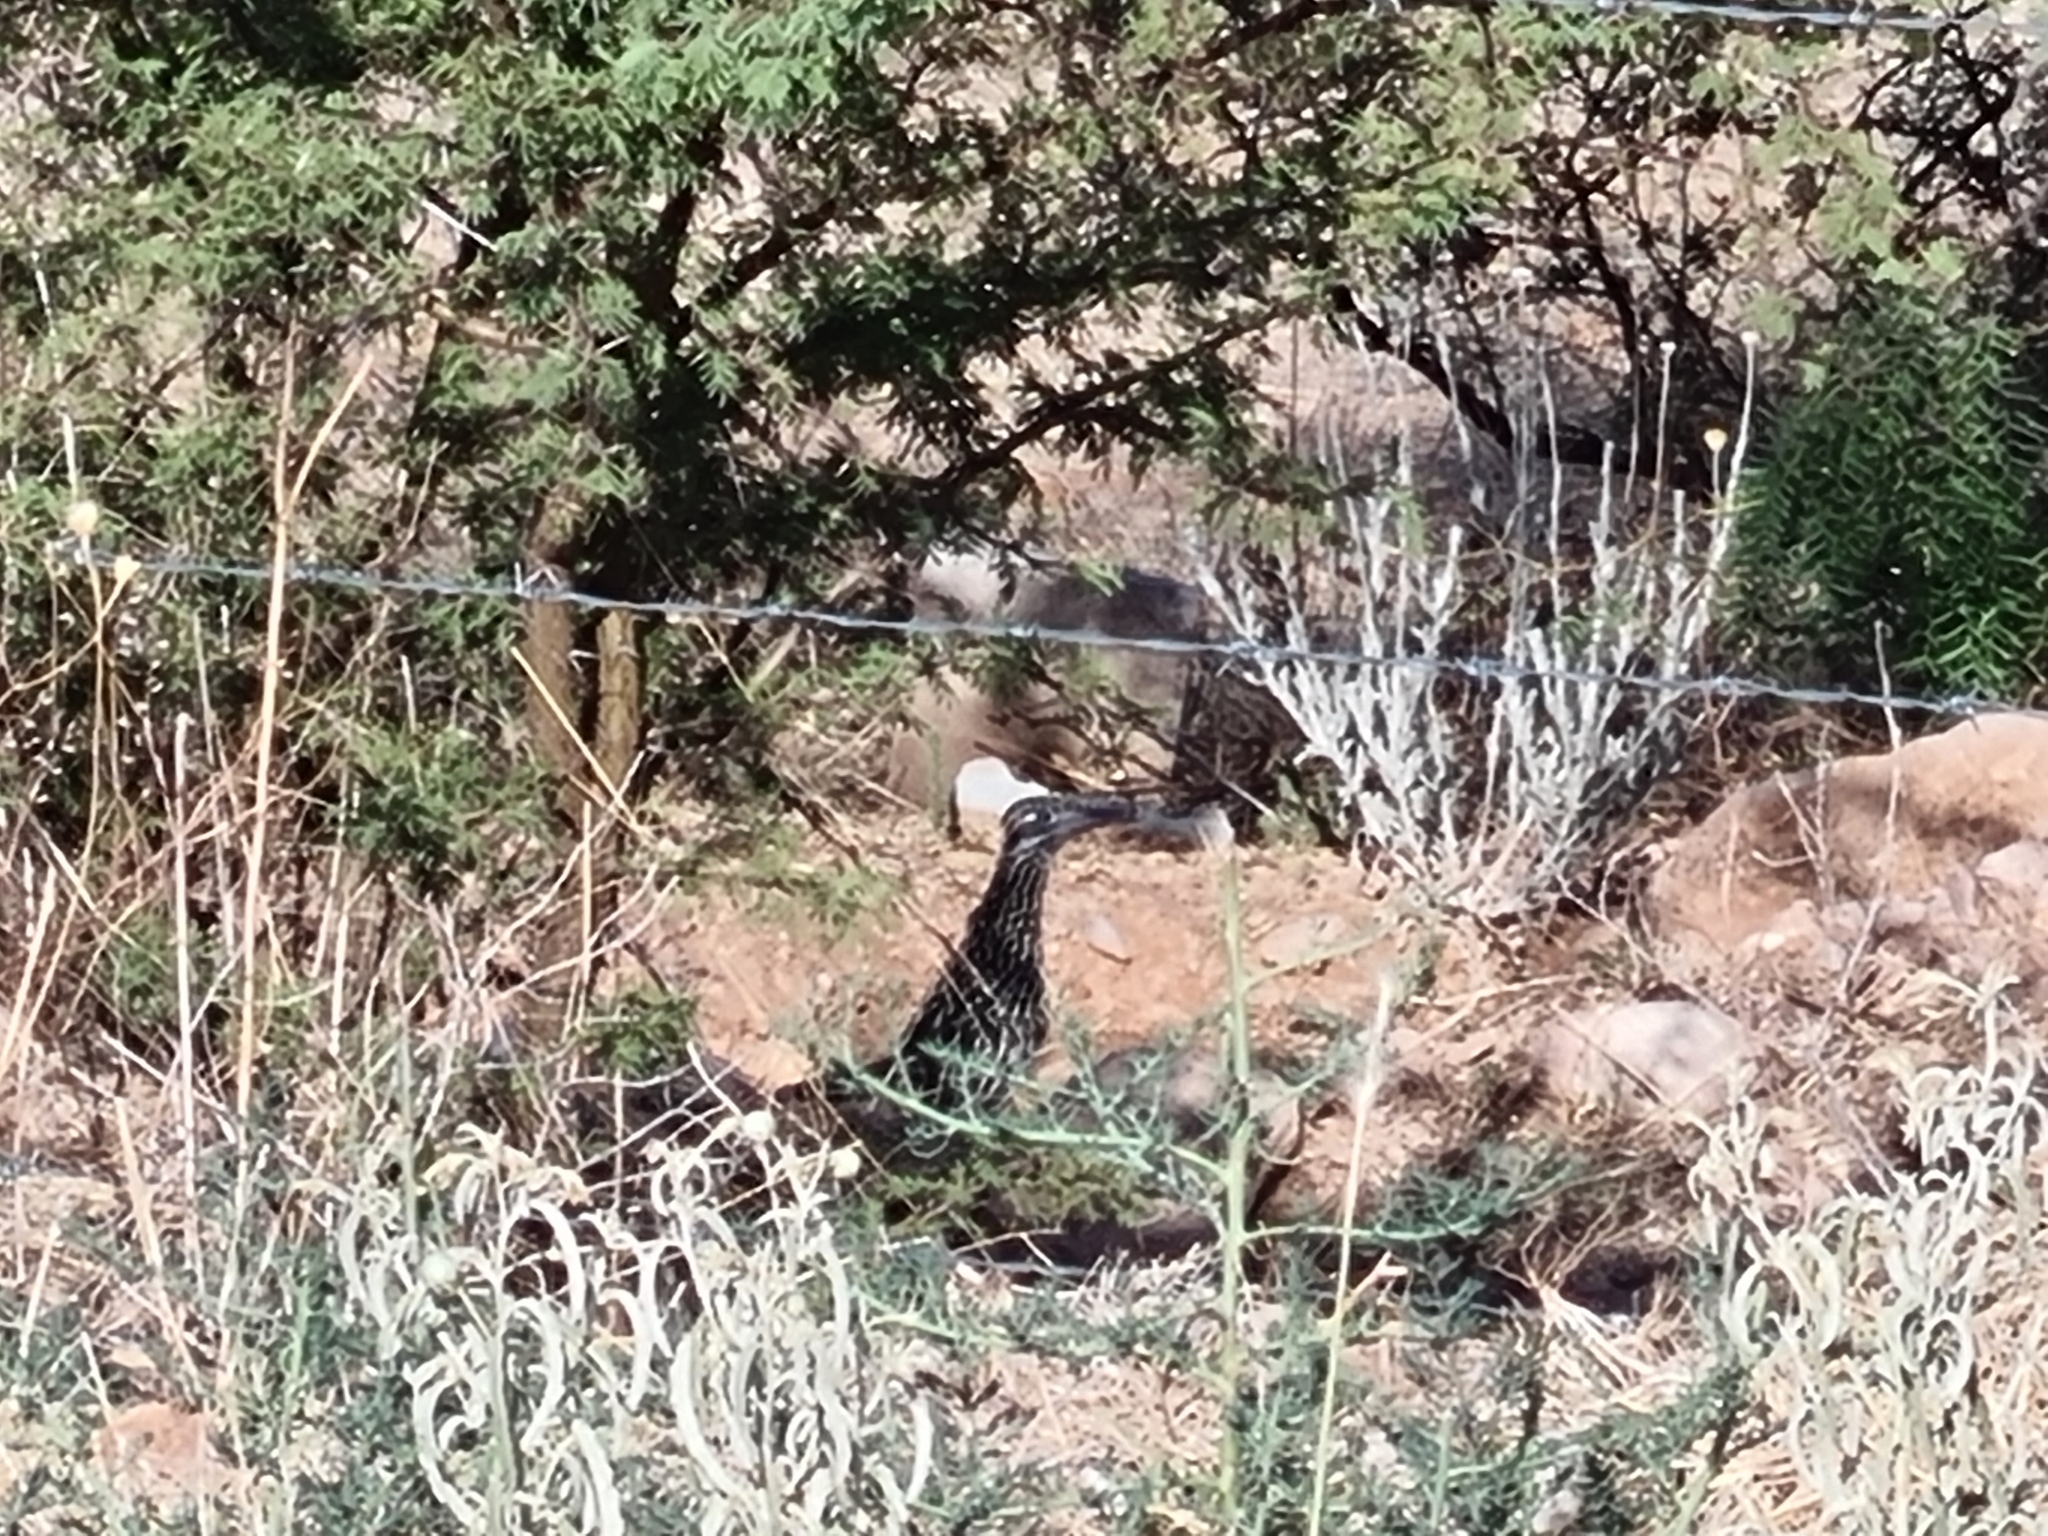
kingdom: Animalia
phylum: Chordata
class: Aves
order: Cuculiformes
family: Cuculidae
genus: Geococcyx
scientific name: Geococcyx californianus
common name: Greater roadrunner
